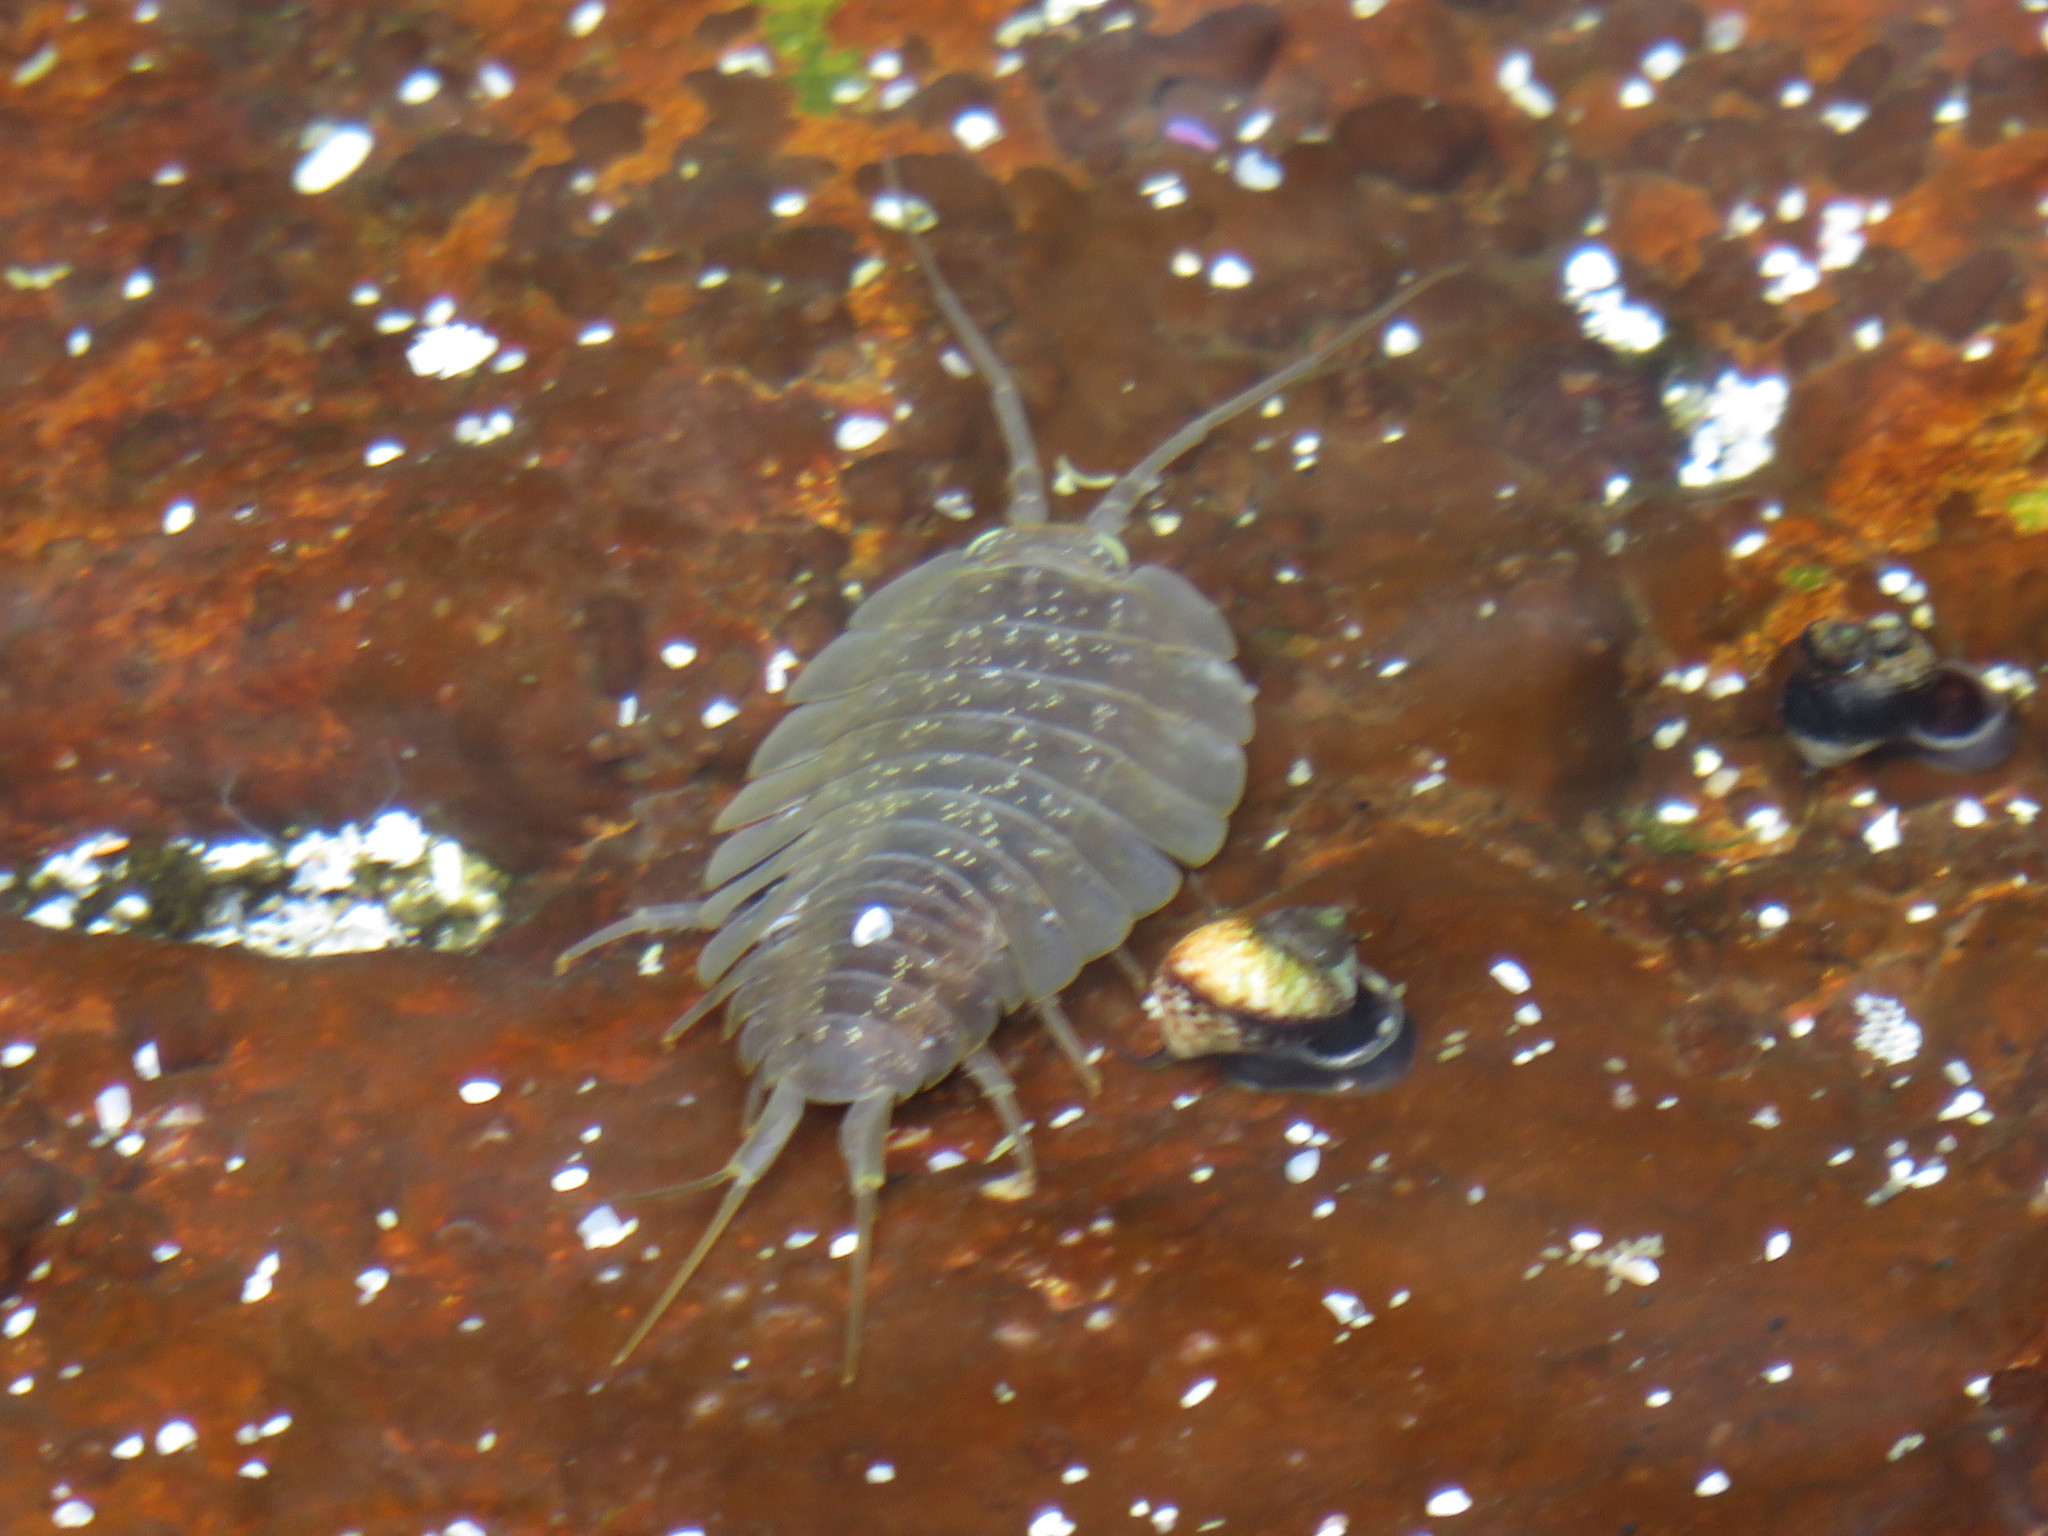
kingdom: Animalia
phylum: Arthropoda
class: Malacostraca
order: Isopoda
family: Ligiidae
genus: Ligia
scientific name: Ligia dilatata
